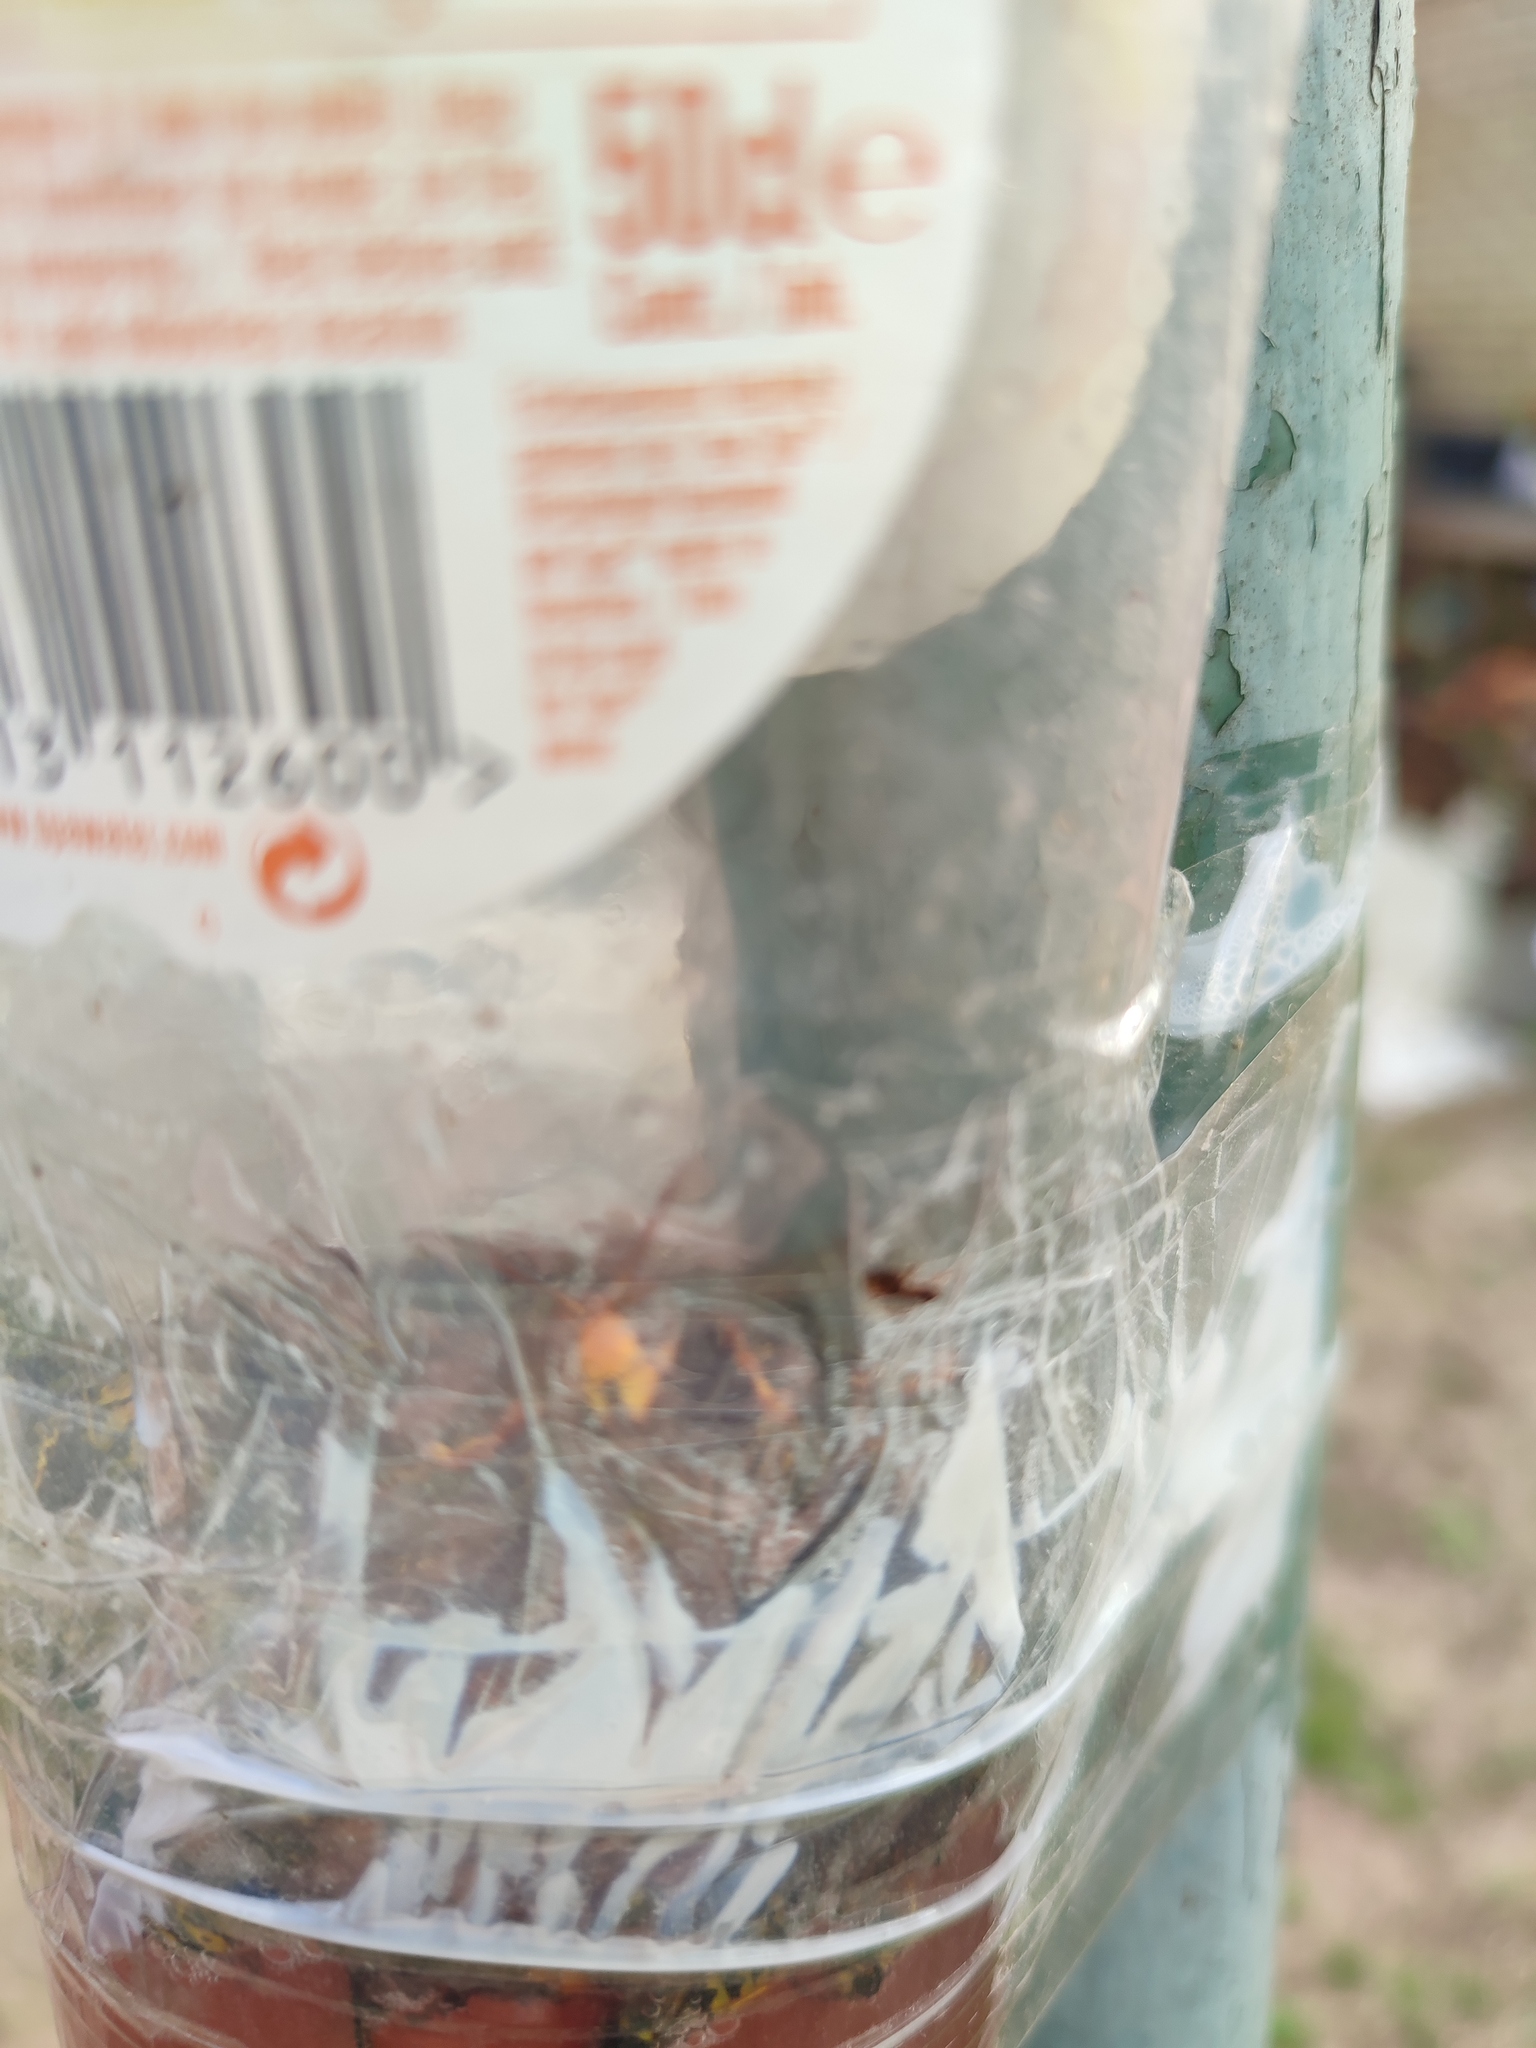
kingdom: Animalia
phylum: Arthropoda
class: Insecta
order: Hymenoptera
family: Vespidae
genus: Vespa
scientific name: Vespa velutina
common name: Asian hornet
